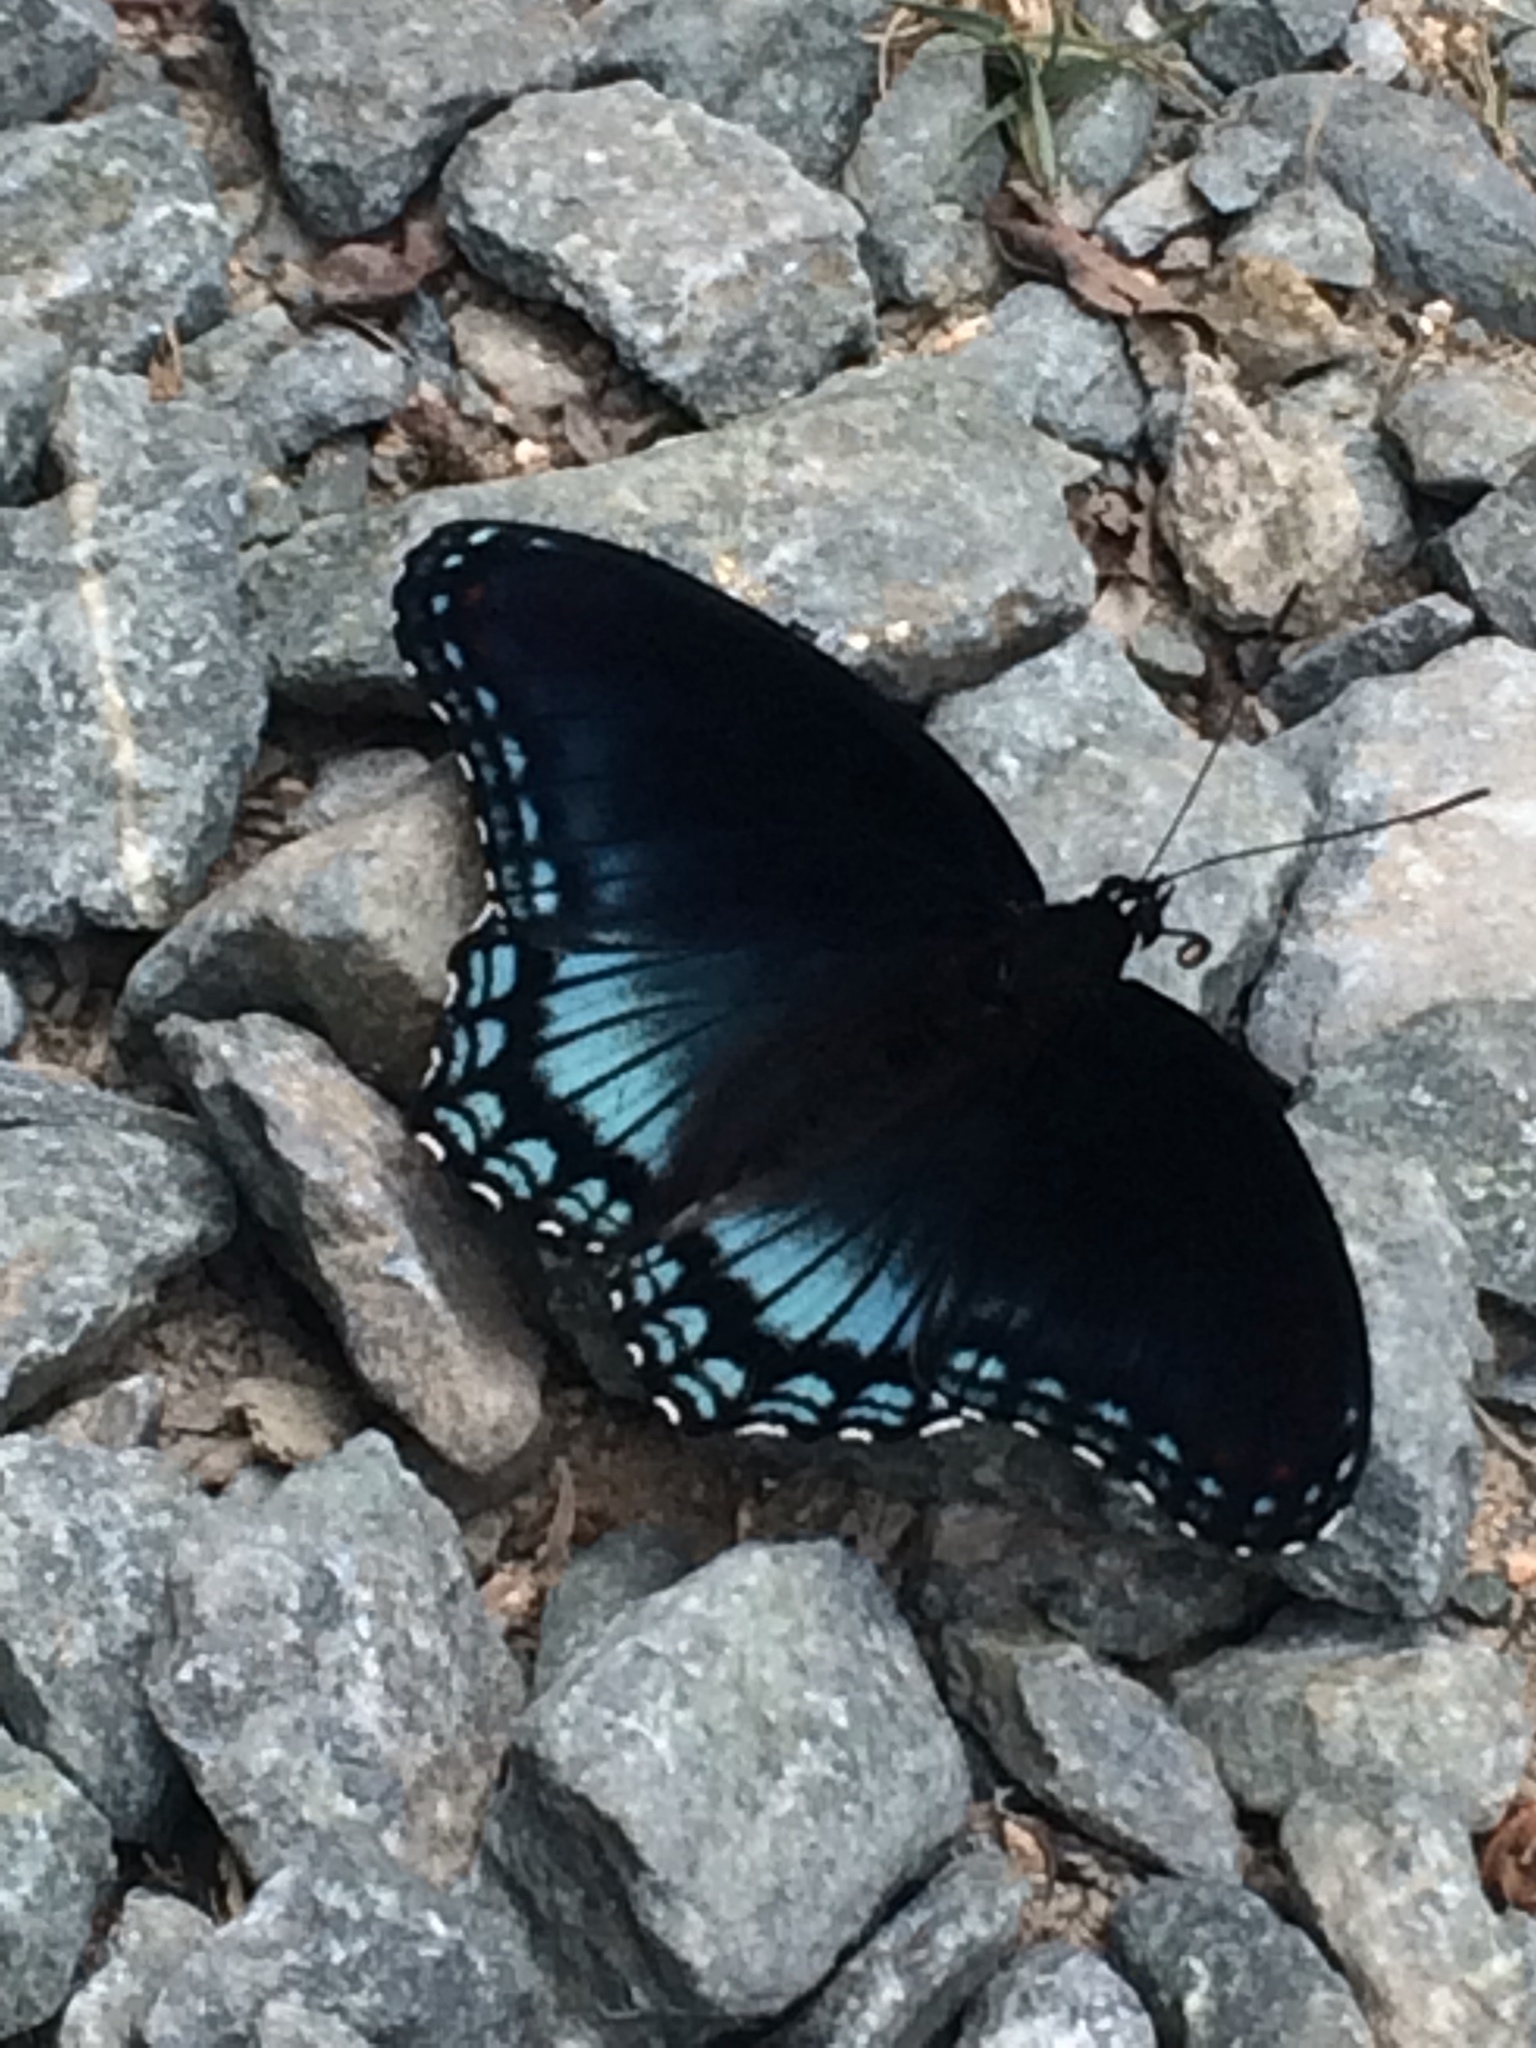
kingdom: Animalia
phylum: Arthropoda
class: Insecta
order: Lepidoptera
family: Nymphalidae
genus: Limenitis
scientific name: Limenitis astyanax
